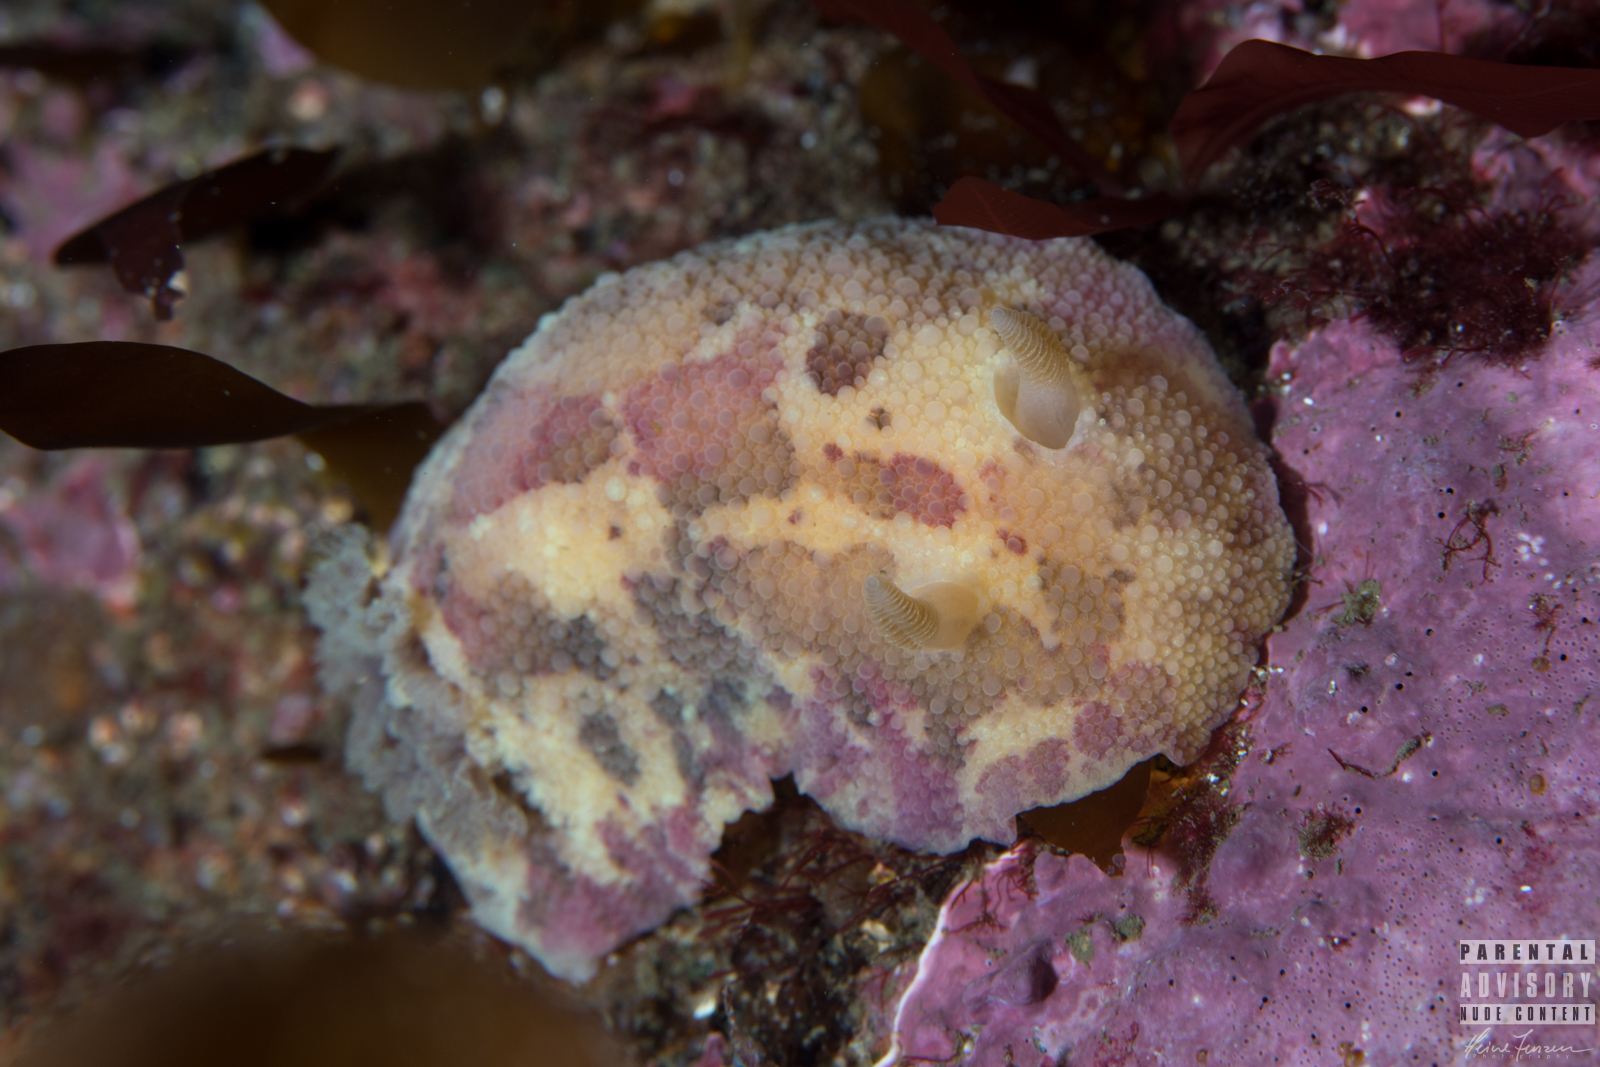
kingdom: Animalia
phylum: Mollusca
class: Gastropoda
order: Nudibranchia
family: Dorididae
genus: Doris
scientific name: Doris pseudoargus
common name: Sea lemon
